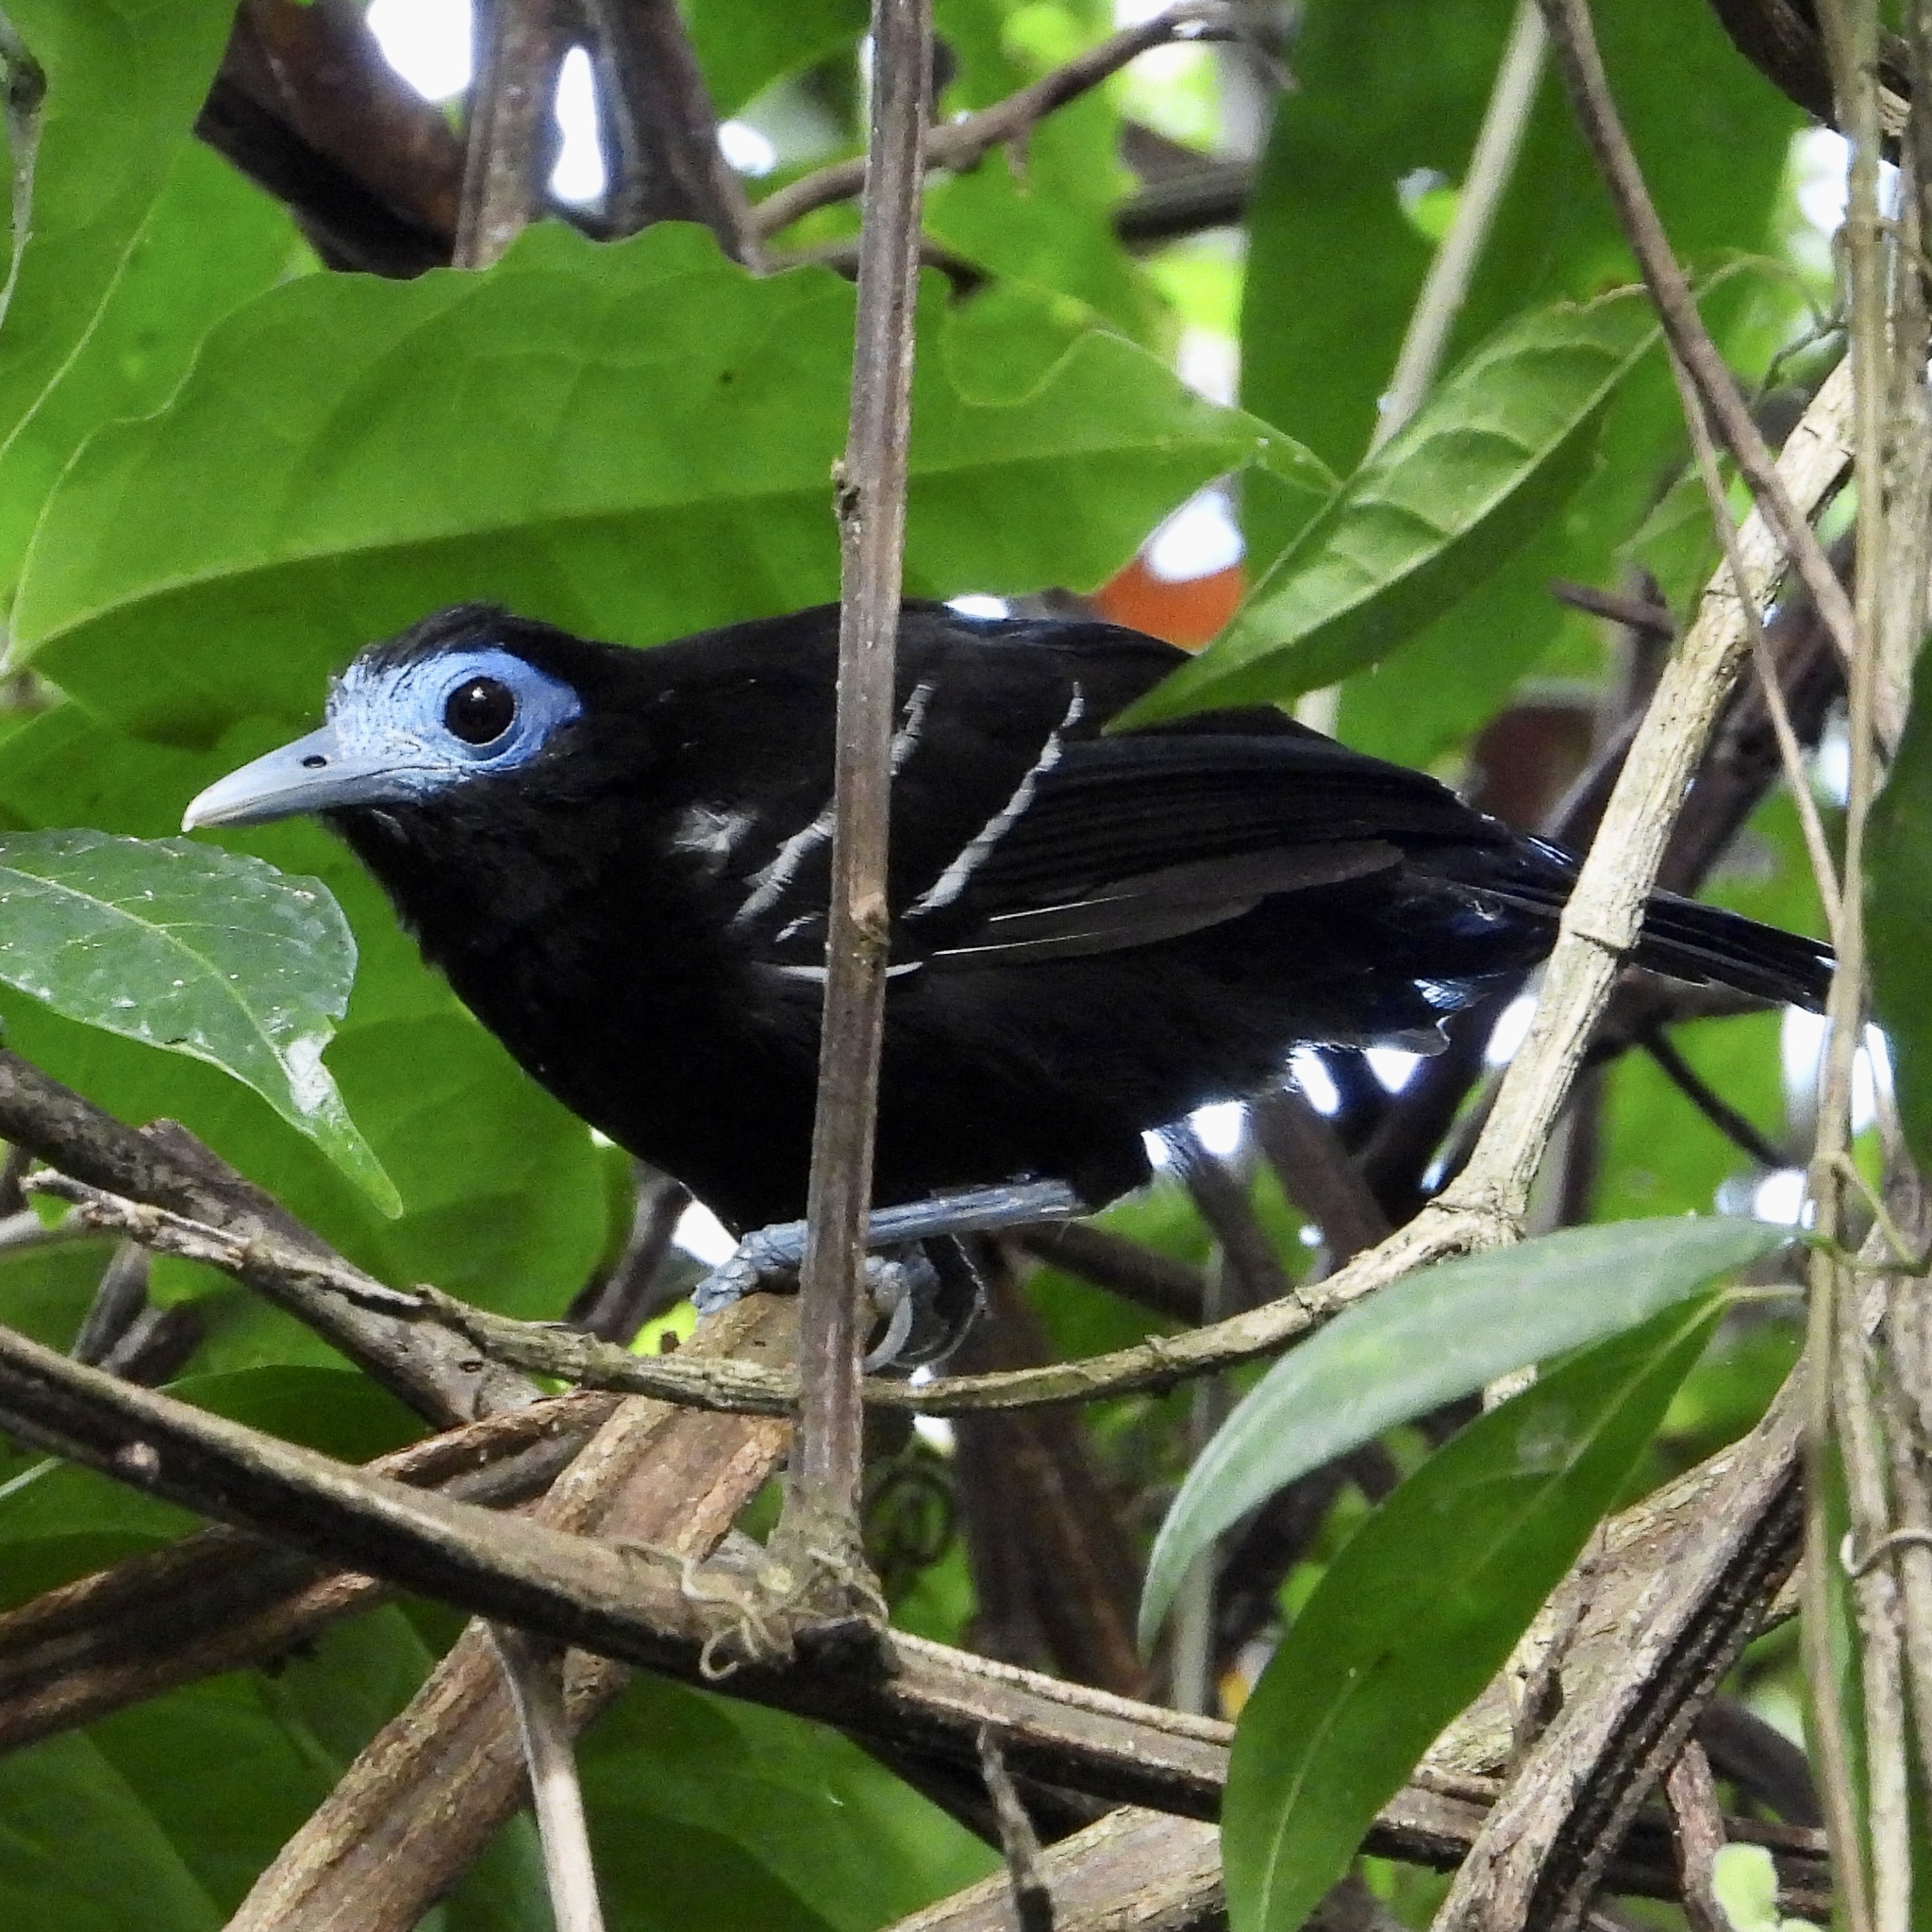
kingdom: Animalia
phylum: Chordata
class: Aves
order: Passeriformes
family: Thamnophilidae
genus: Gymnocichla
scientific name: Gymnocichla nudiceps
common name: Bare-crowned antbird
